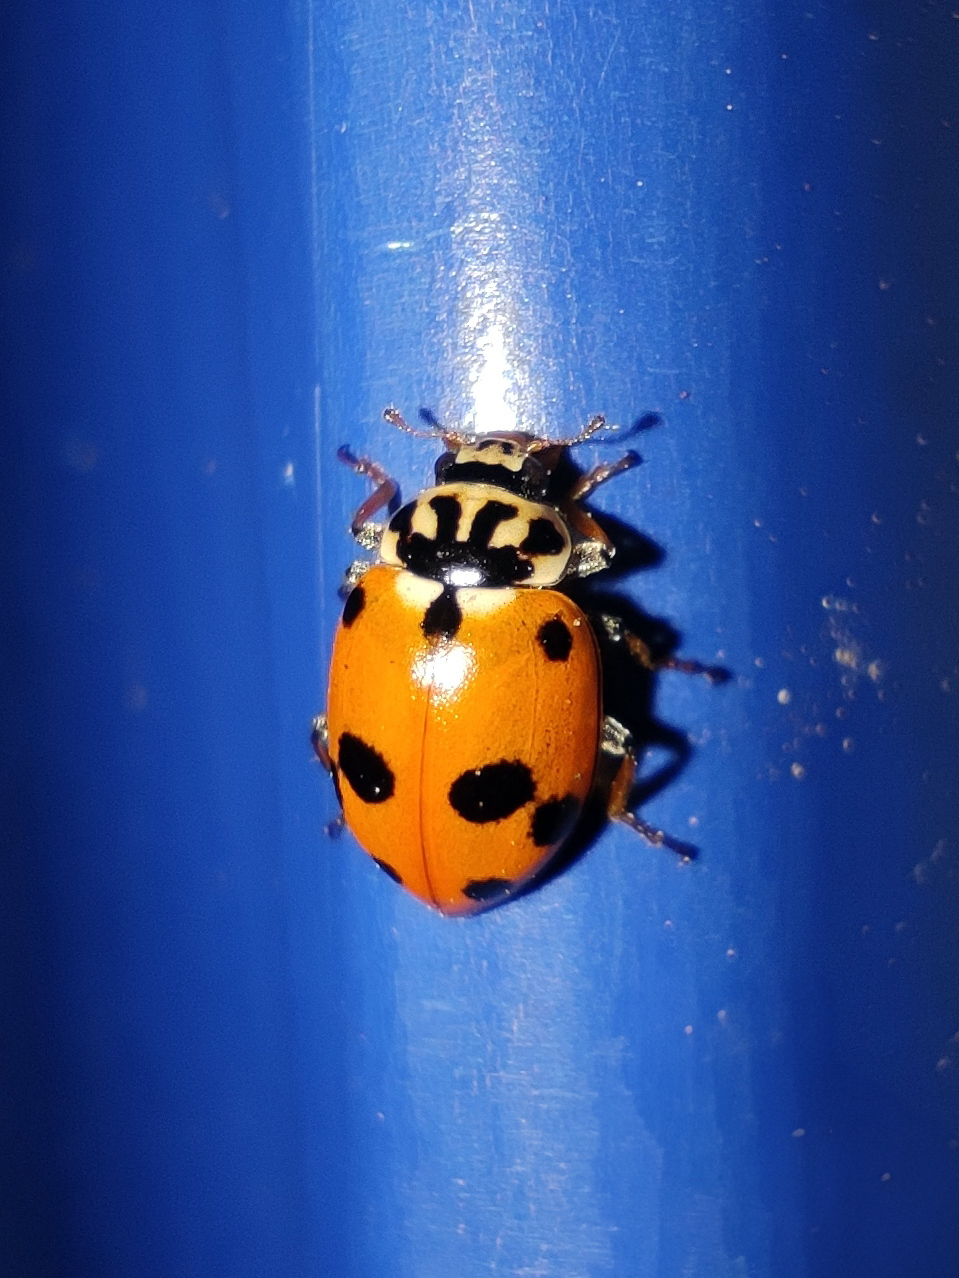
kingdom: Animalia
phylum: Arthropoda
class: Insecta
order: Coleoptera
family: Coccinellidae
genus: Hippodamia
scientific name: Hippodamia variegata
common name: Ladybird beetle
